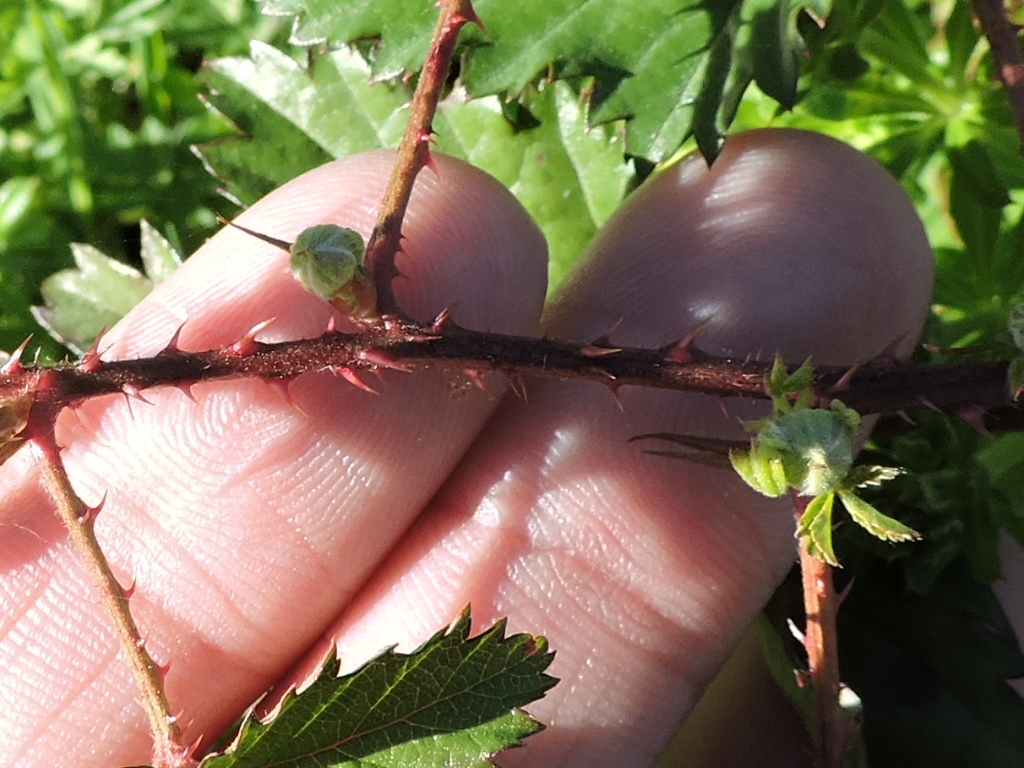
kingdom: Plantae
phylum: Tracheophyta
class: Magnoliopsida
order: Rosales
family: Rosaceae
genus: Rubus
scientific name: Rubus trivialis
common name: Southern dewberry
